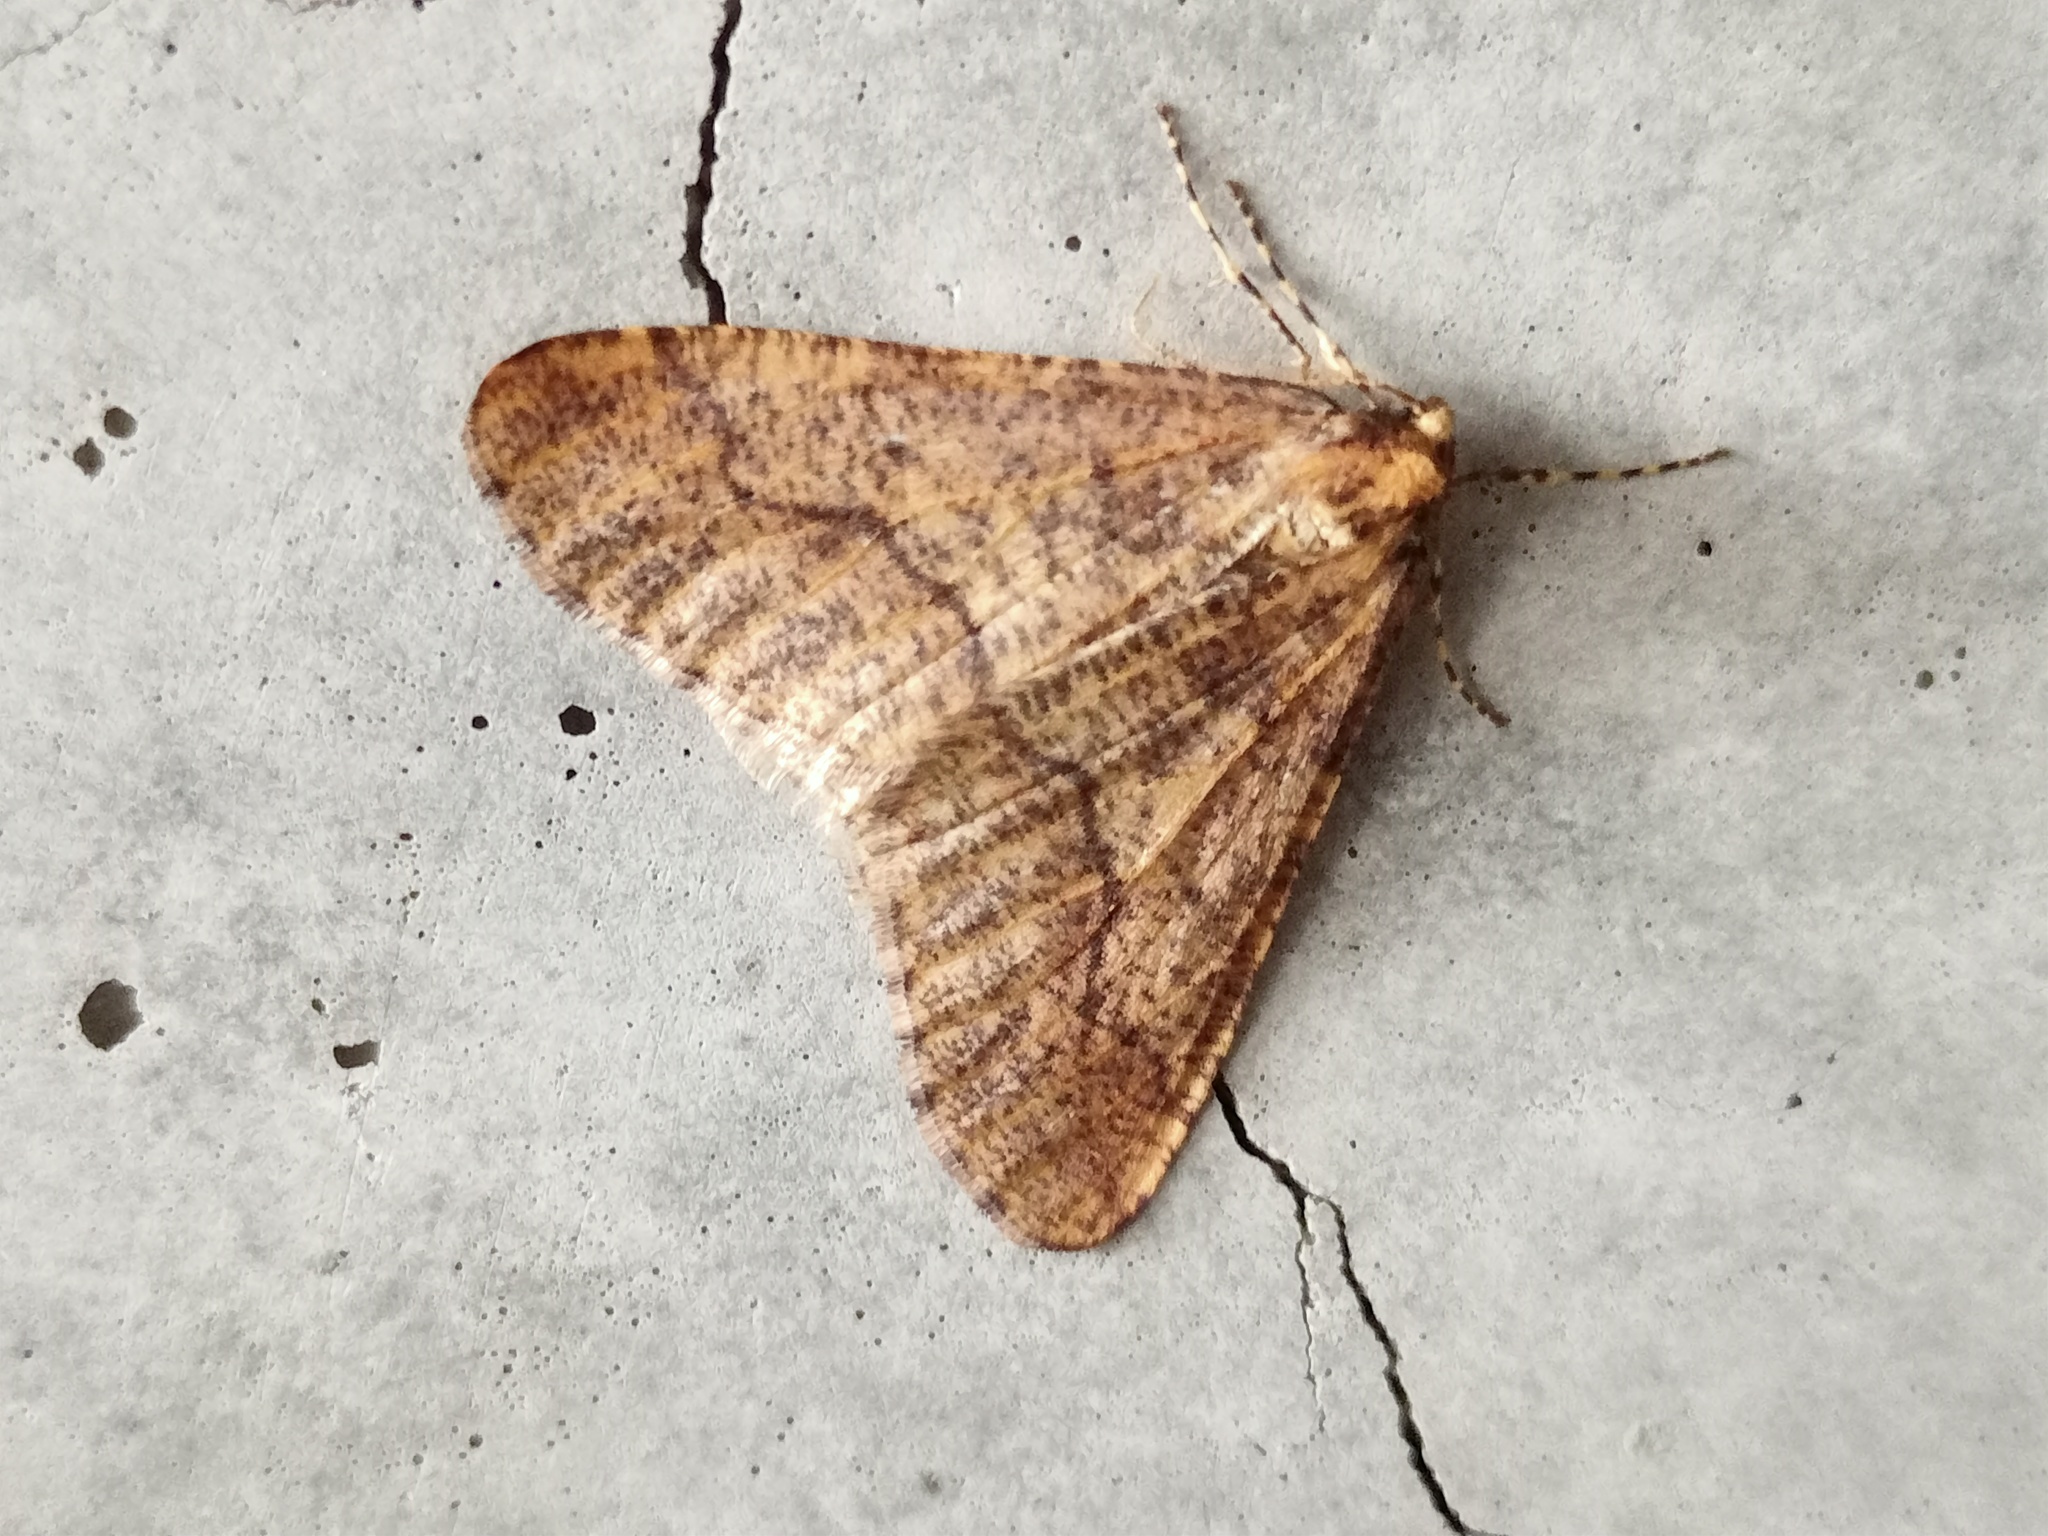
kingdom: Animalia
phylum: Arthropoda
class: Insecta
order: Lepidoptera
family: Geometridae
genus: Erannis
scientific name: Erannis defoliaria
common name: Mottled umber
